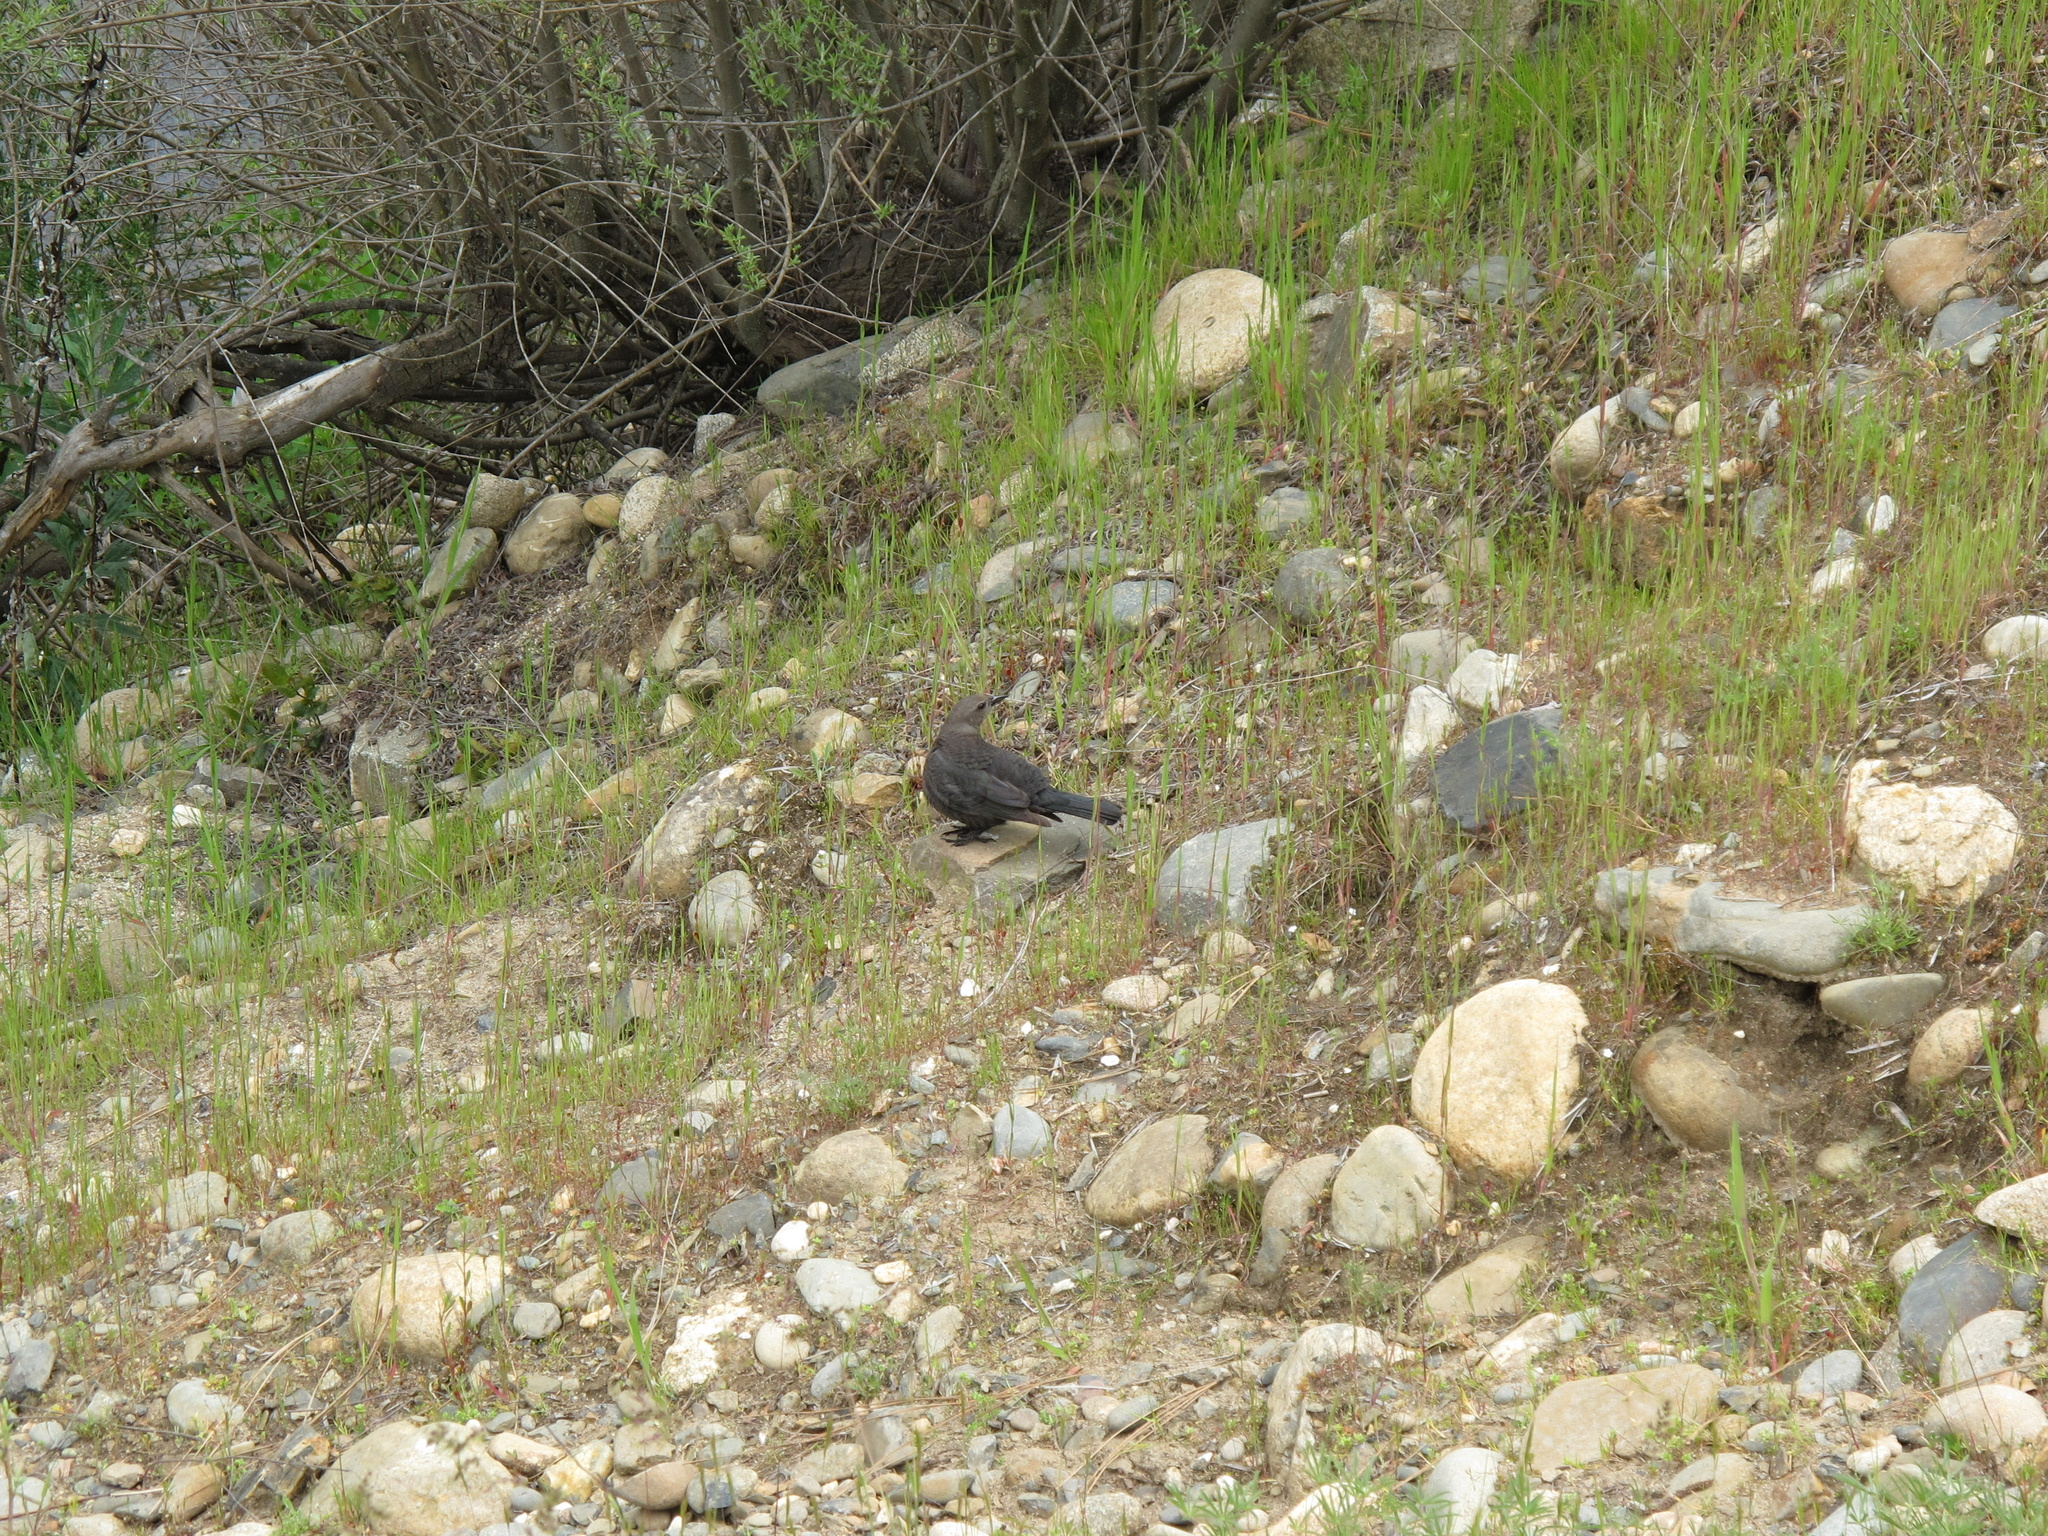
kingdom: Animalia
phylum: Chordata
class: Aves
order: Passeriformes
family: Icteridae
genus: Euphagus
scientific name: Euphagus cyanocephalus
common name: Brewer's blackbird
